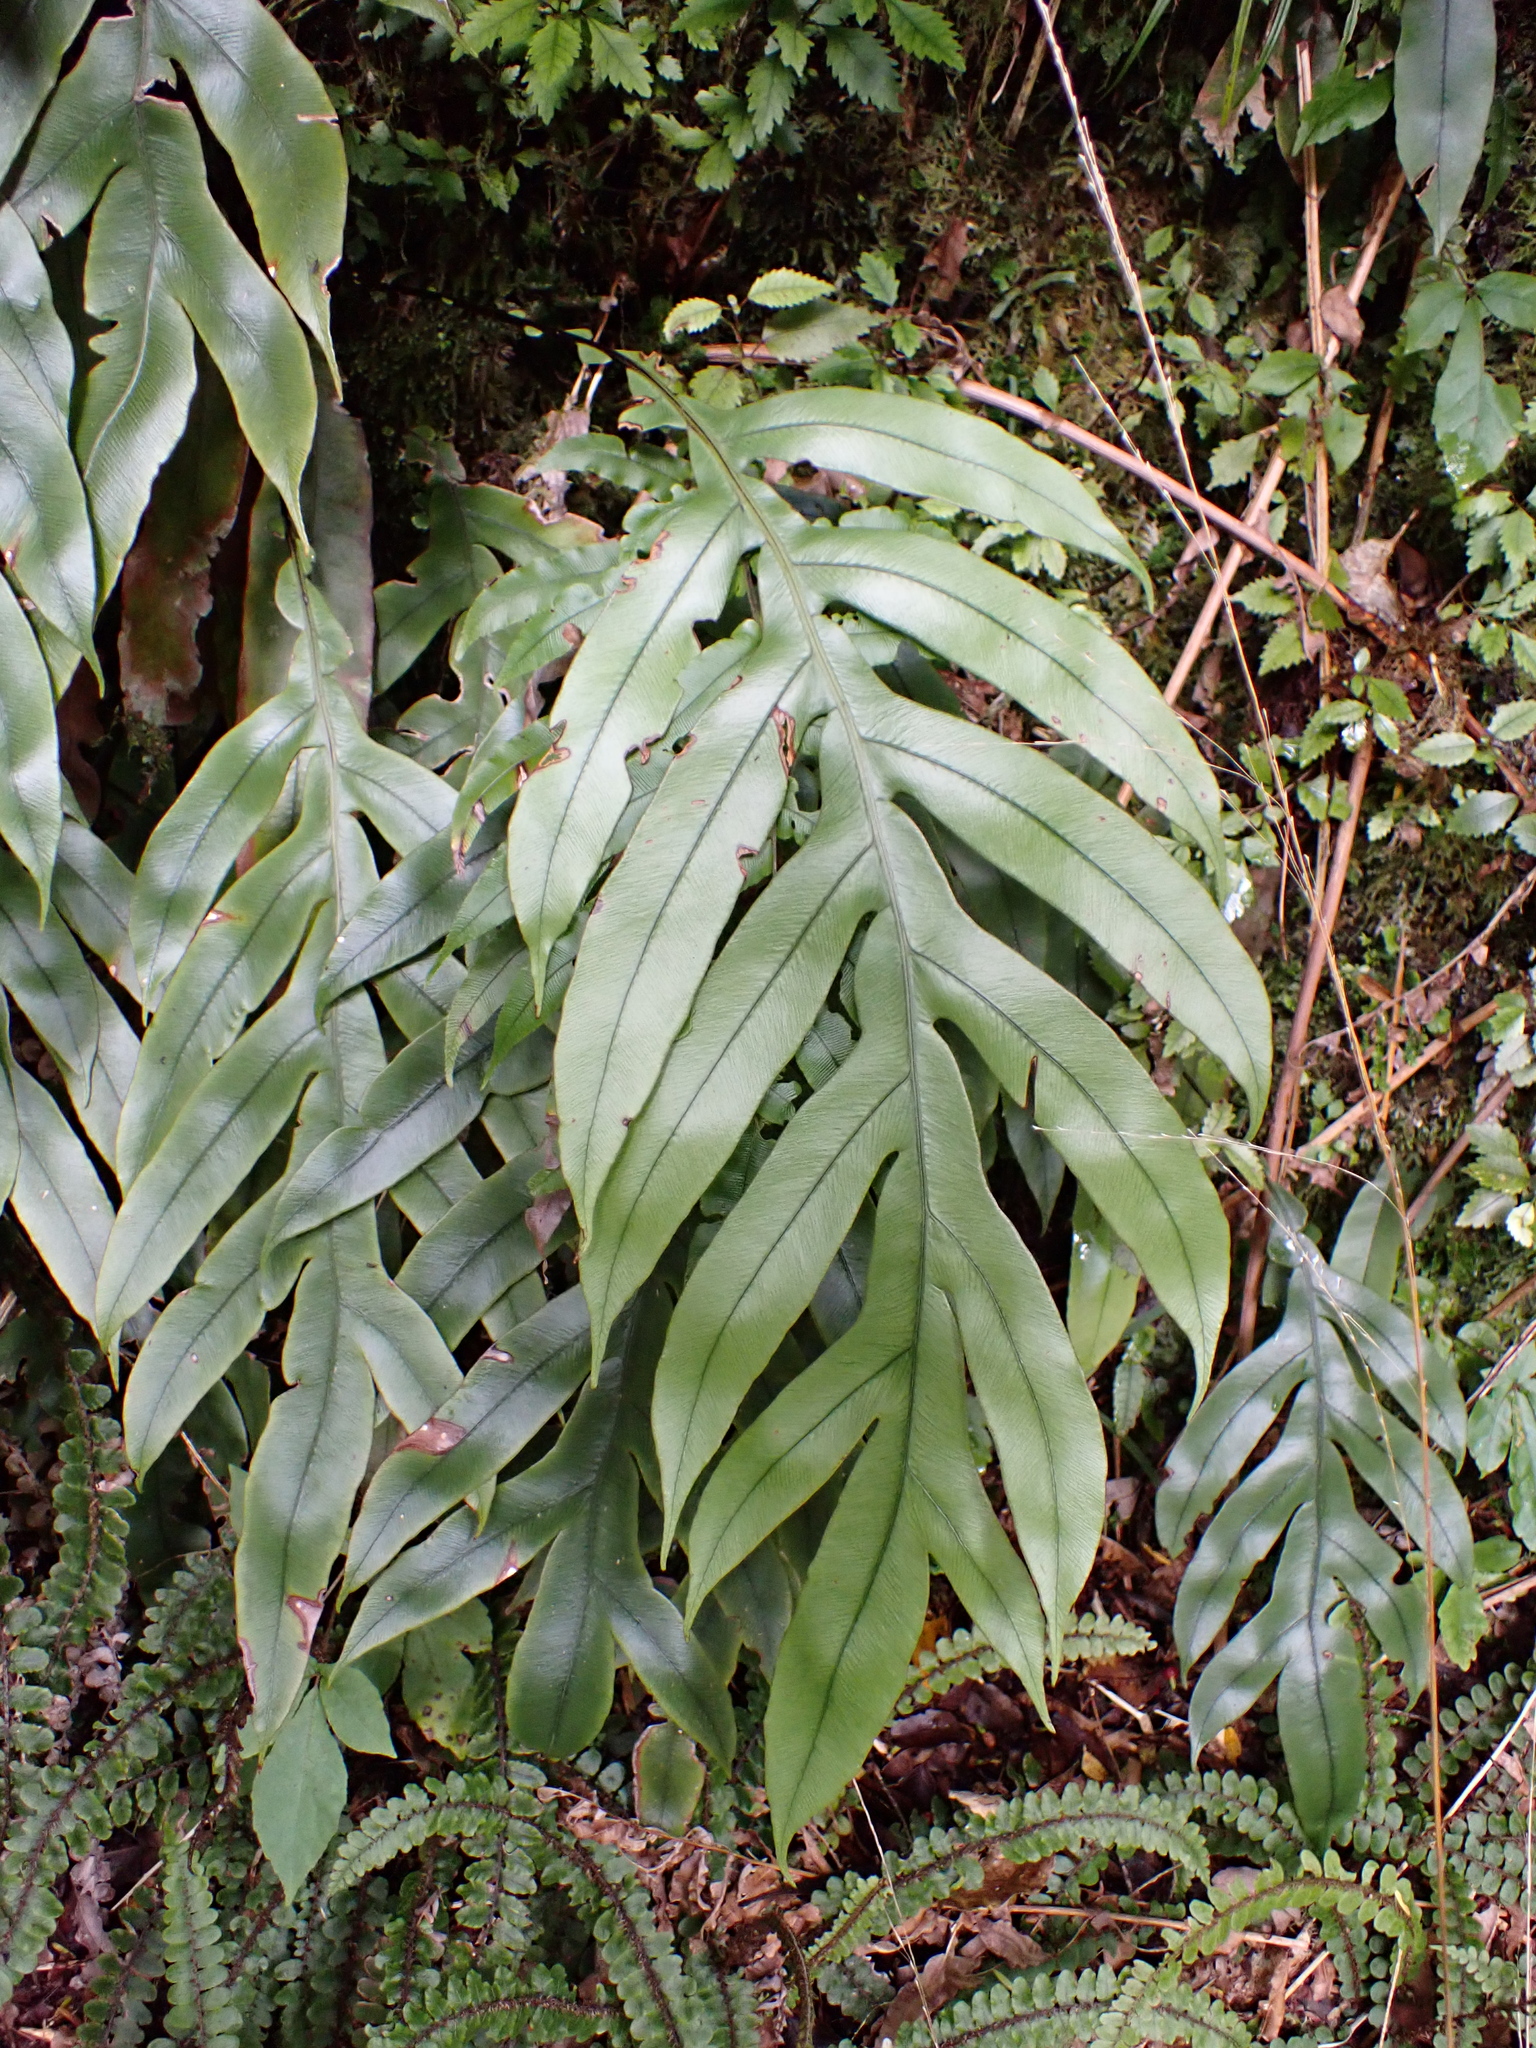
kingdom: Plantae
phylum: Tracheophyta
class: Polypodiopsida
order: Polypodiales
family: Blechnaceae
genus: Austroblechnum
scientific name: Austroblechnum colensoi
